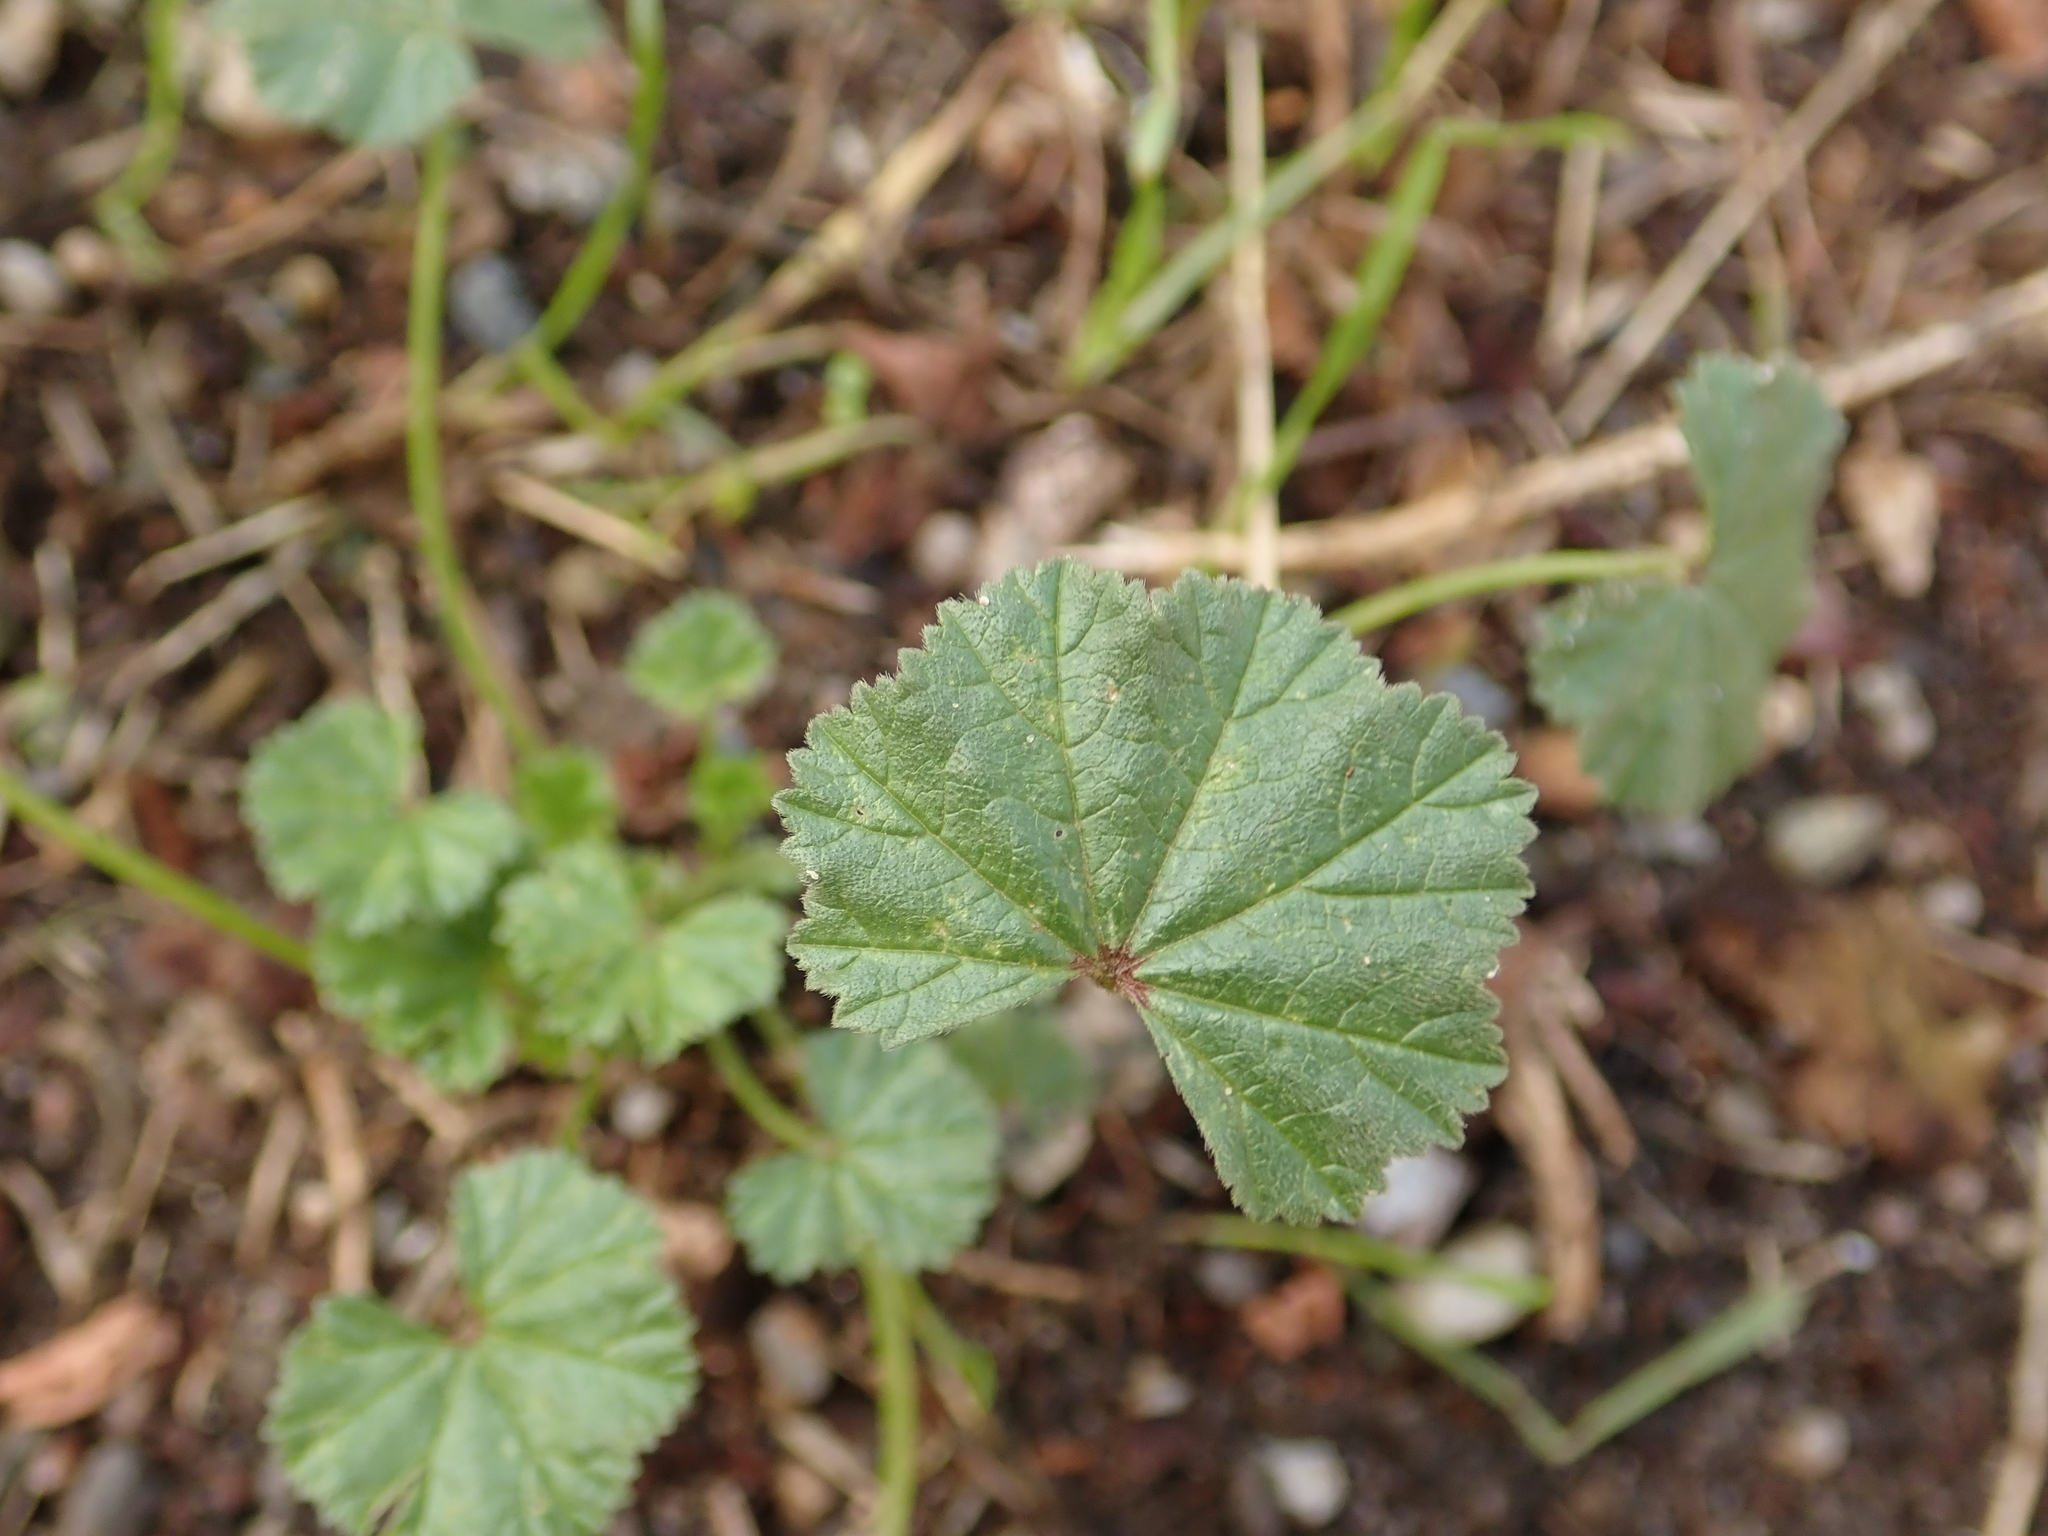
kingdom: Plantae
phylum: Tracheophyta
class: Magnoliopsida
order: Malvales
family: Malvaceae
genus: Malva
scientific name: Malva neglecta
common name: Common mallow
